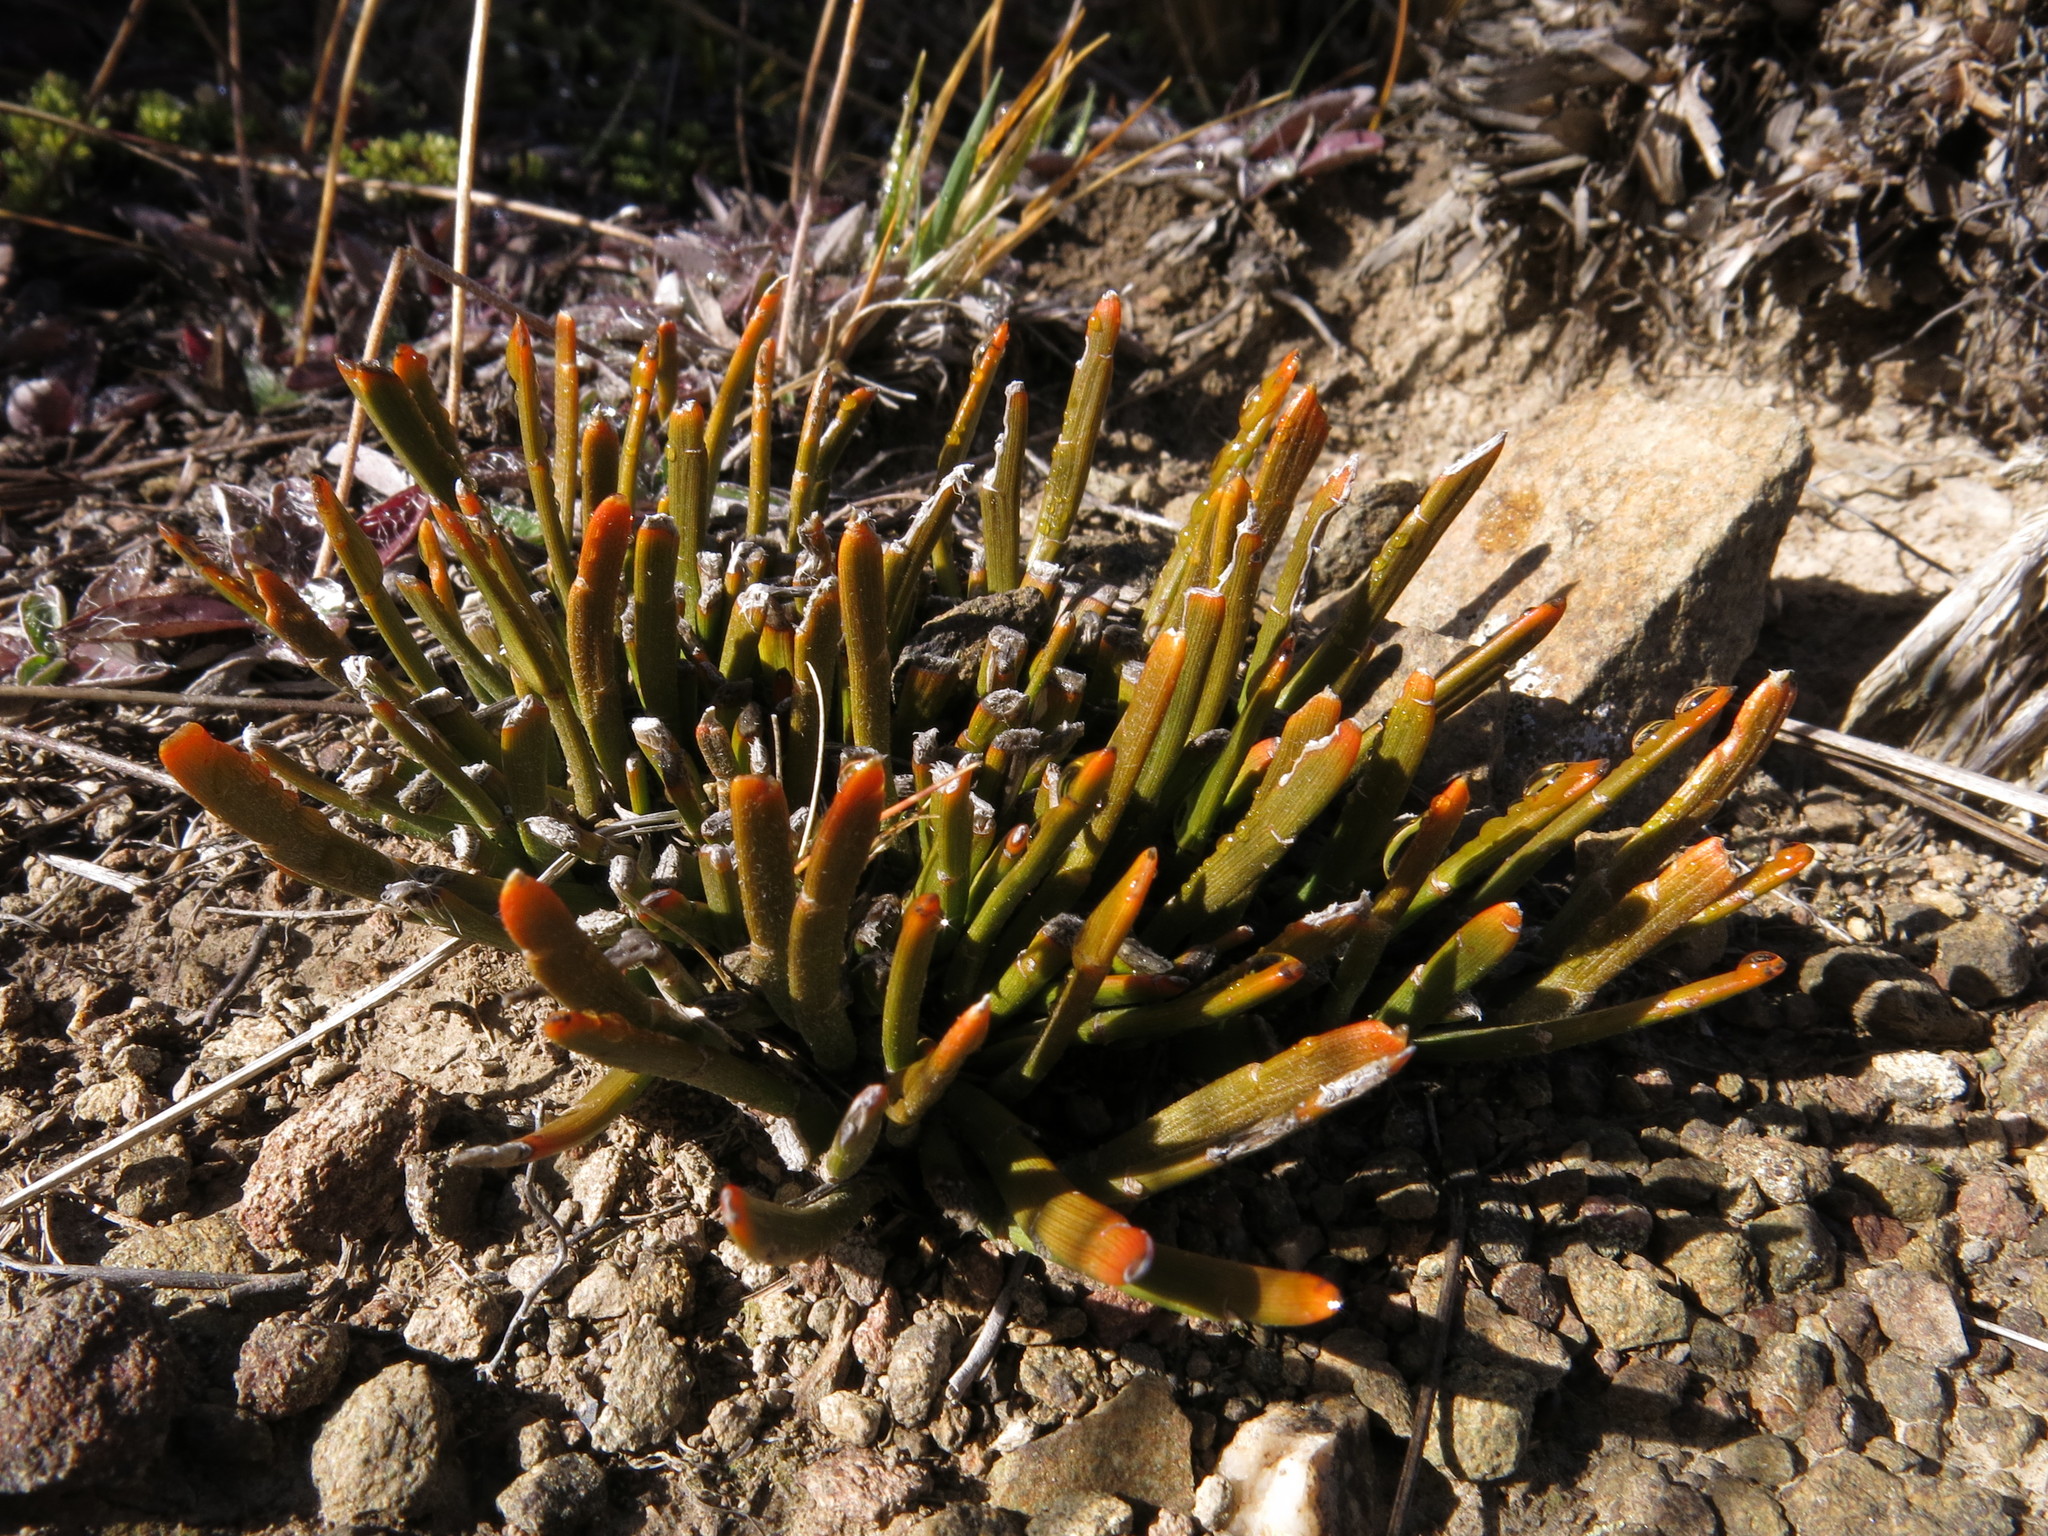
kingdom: Plantae
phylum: Tracheophyta
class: Magnoliopsida
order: Fabales
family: Fabaceae
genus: Carmichaelia
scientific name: Carmichaelia vexillata
